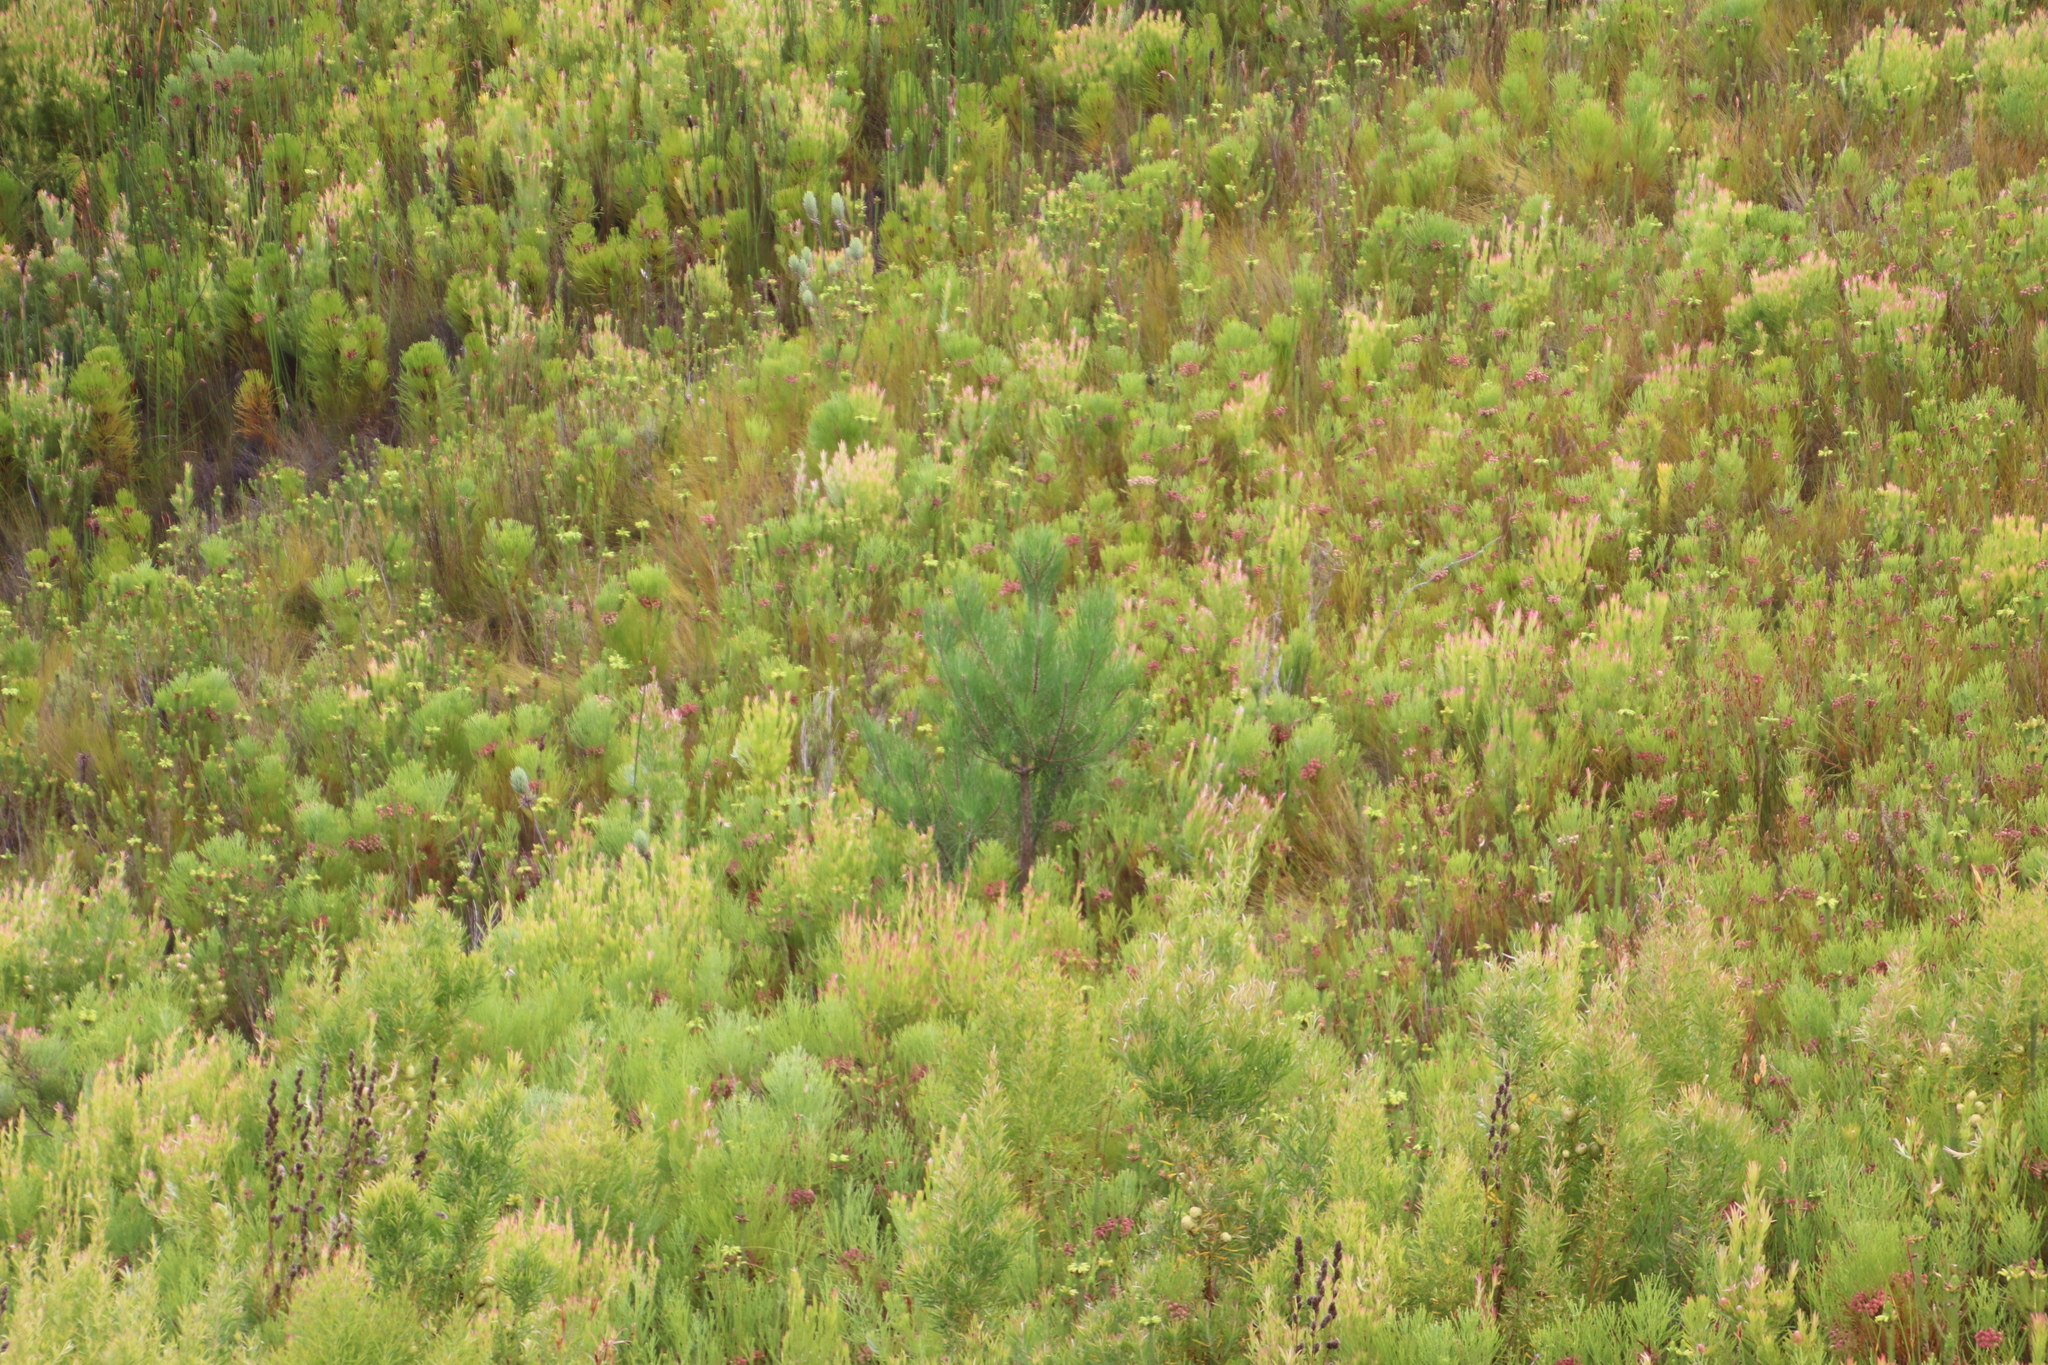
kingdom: Plantae
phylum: Tracheophyta
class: Pinopsida
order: Pinales
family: Pinaceae
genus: Pinus
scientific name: Pinus pinaster
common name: Maritime pine
